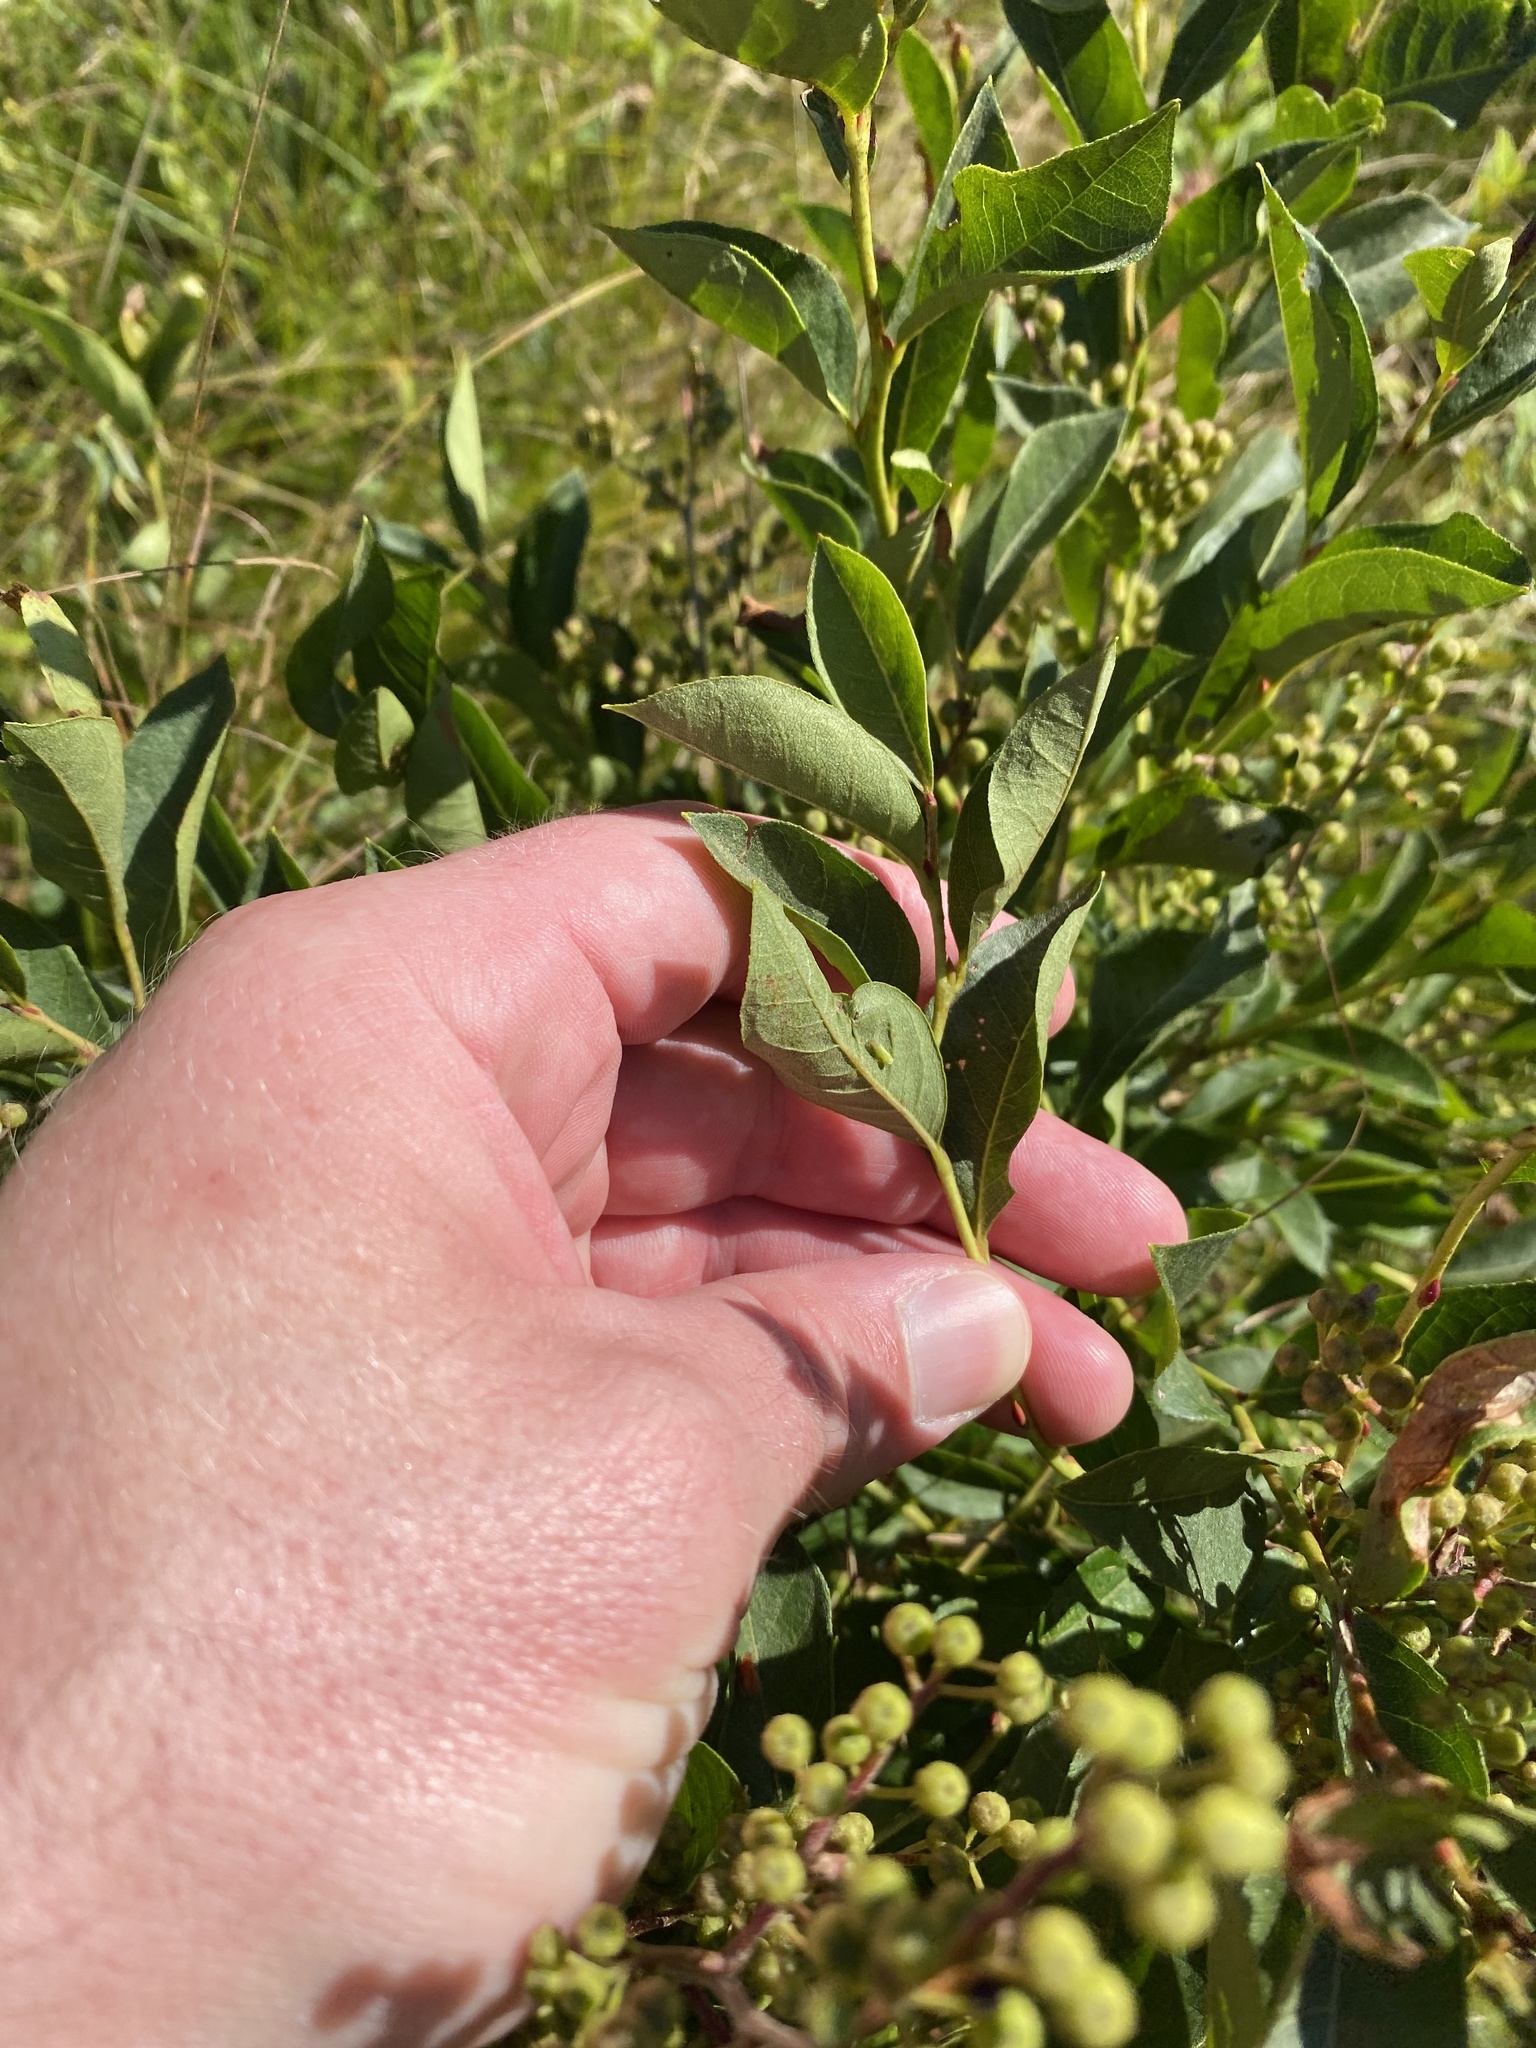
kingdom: Plantae
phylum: Tracheophyta
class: Magnoliopsida
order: Ericales
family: Ericaceae
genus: Lyonia
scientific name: Lyonia ligustrina
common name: Maleberry
